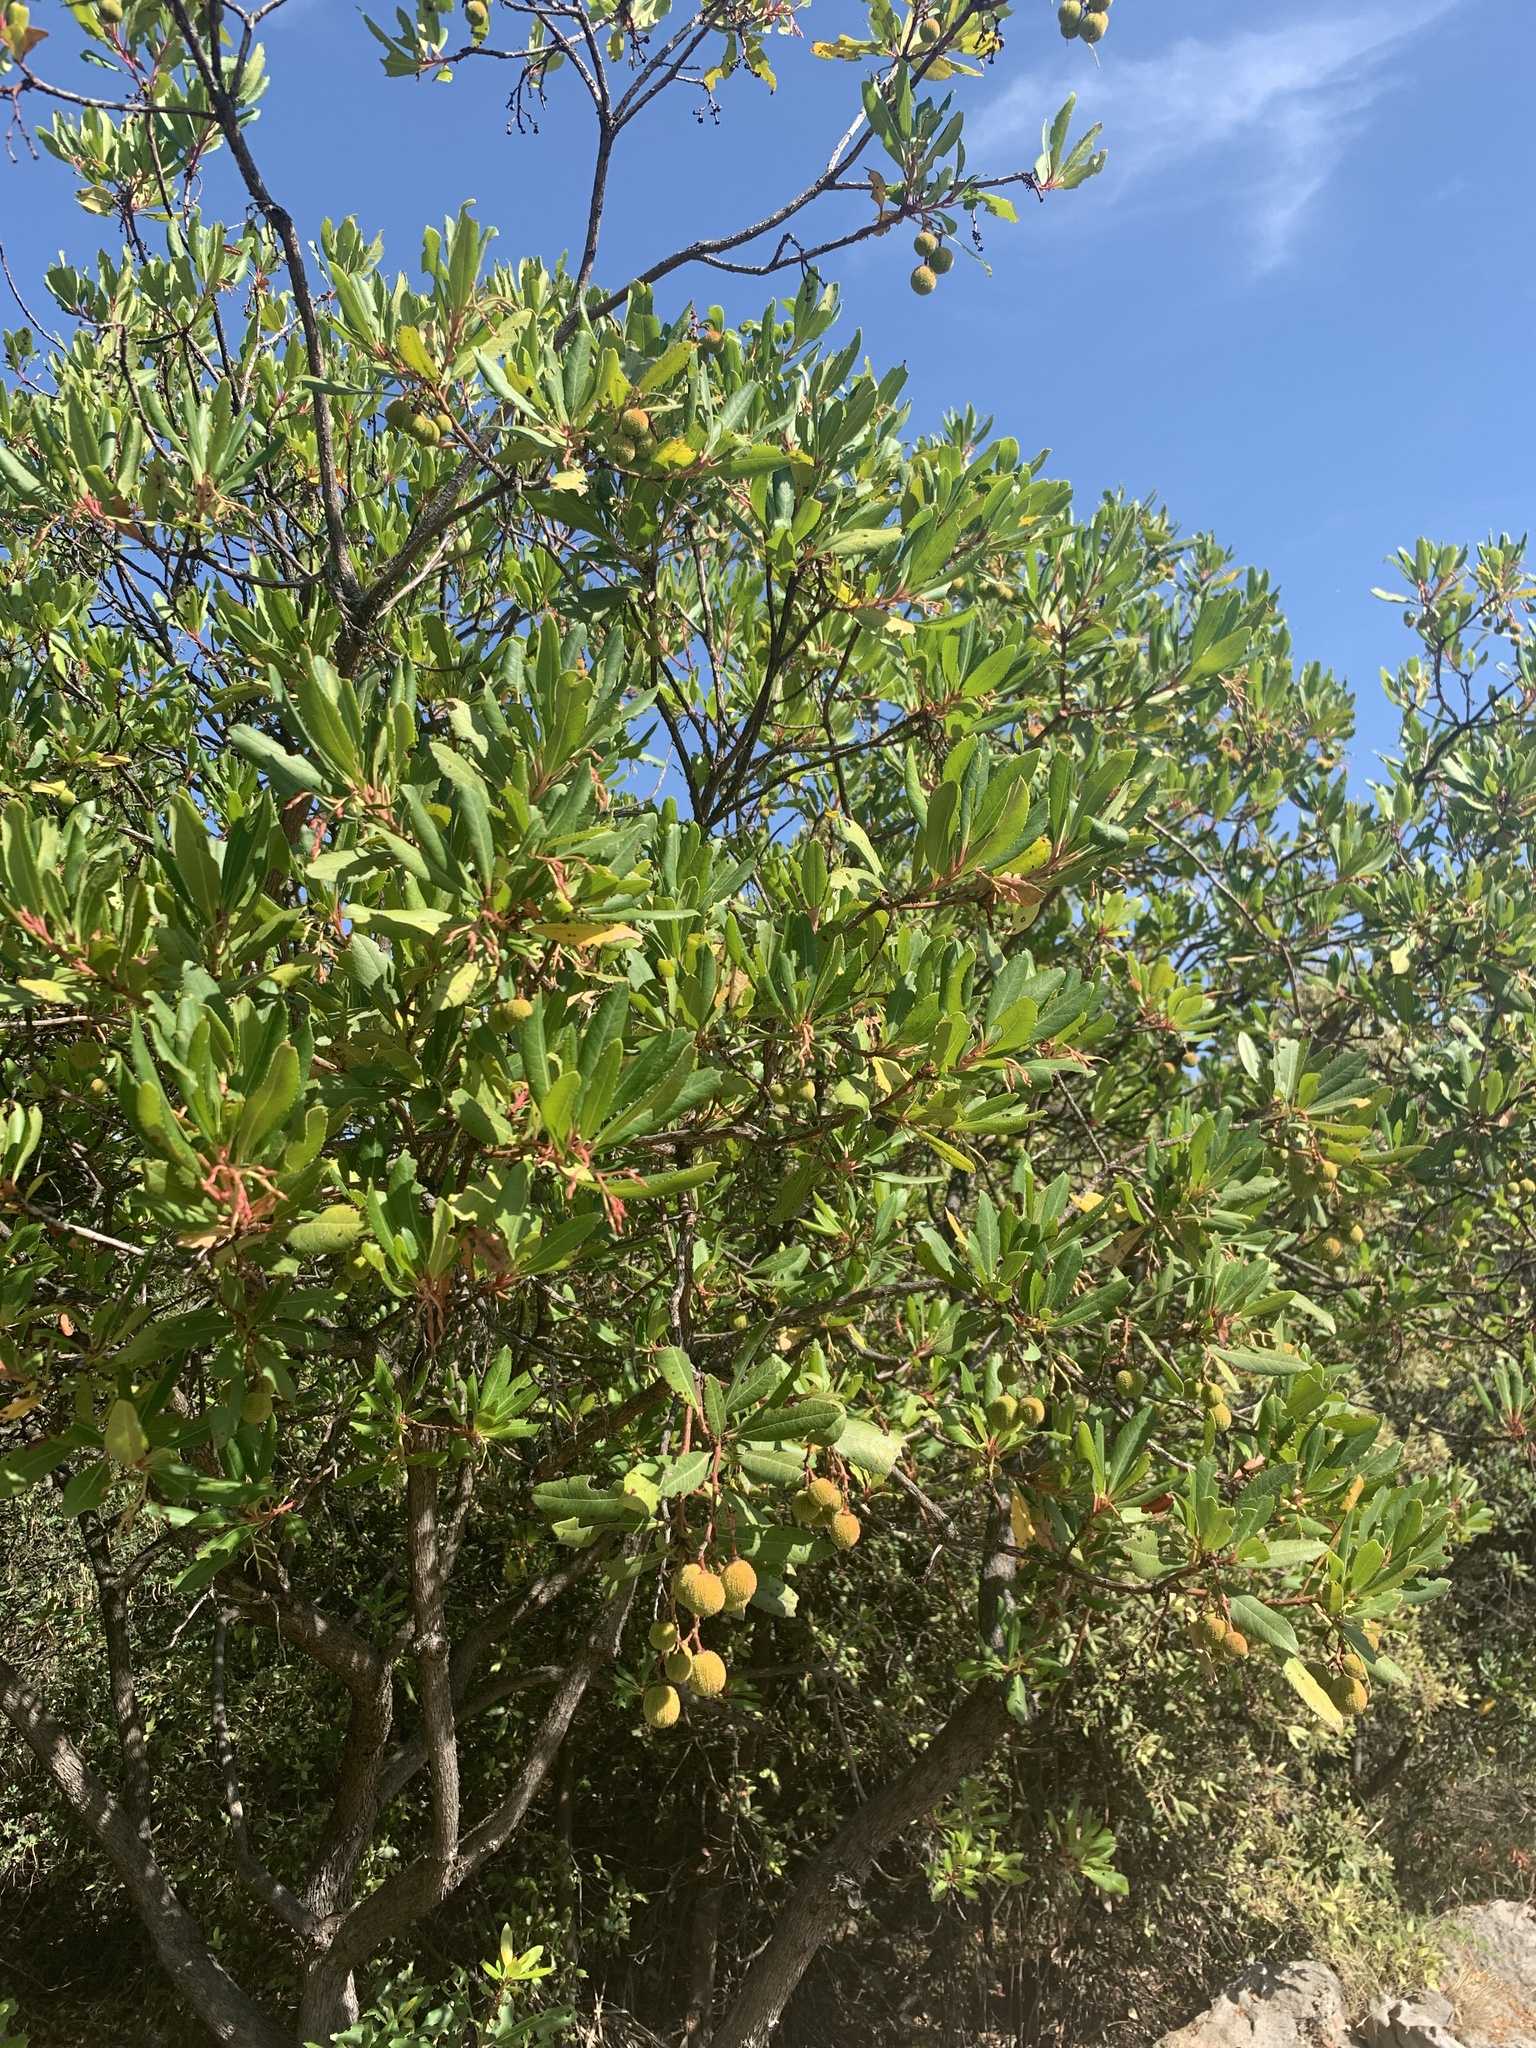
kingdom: Plantae
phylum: Tracheophyta
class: Magnoliopsida
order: Ericales
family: Ericaceae
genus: Arbutus
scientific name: Arbutus unedo
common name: Strawberry-tree
